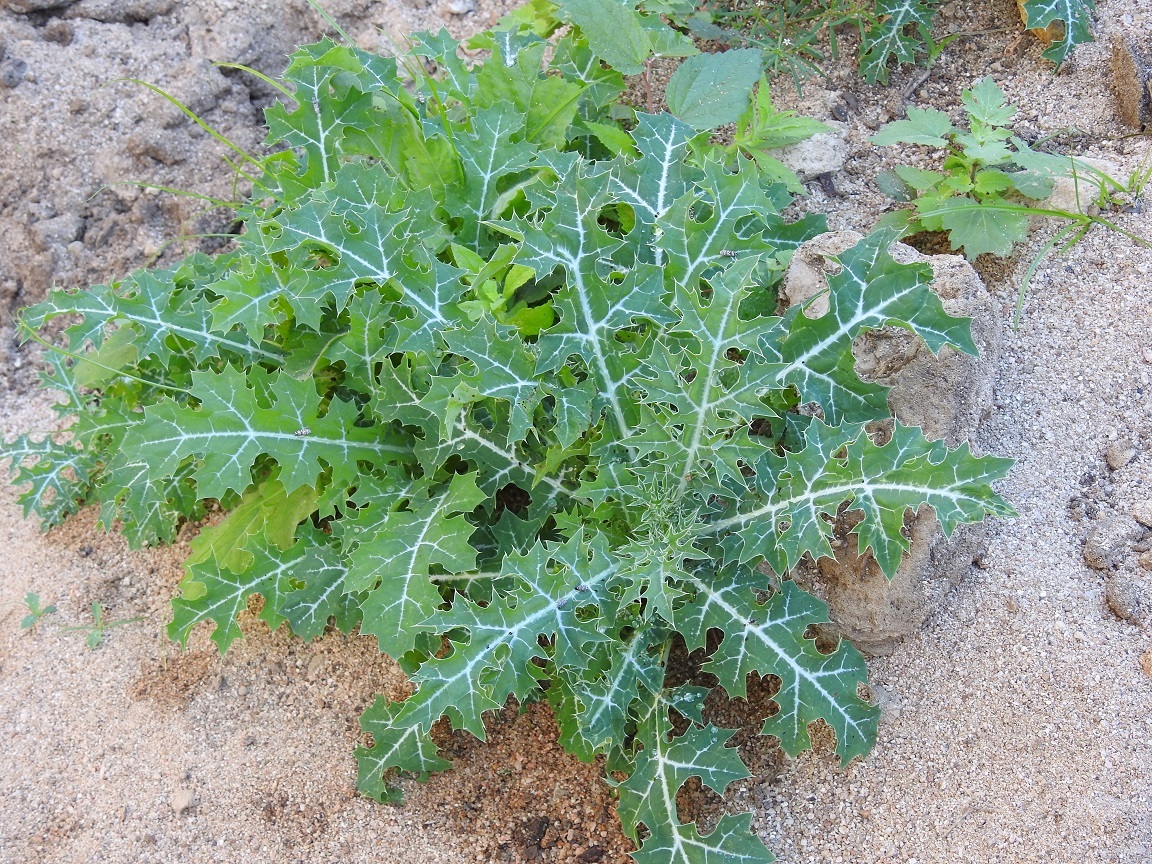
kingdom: Plantae
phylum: Tracheophyta
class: Magnoliopsida
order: Ranunculales
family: Papaveraceae
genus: Argemone
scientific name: Argemone mexicana
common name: Mexican poppy
